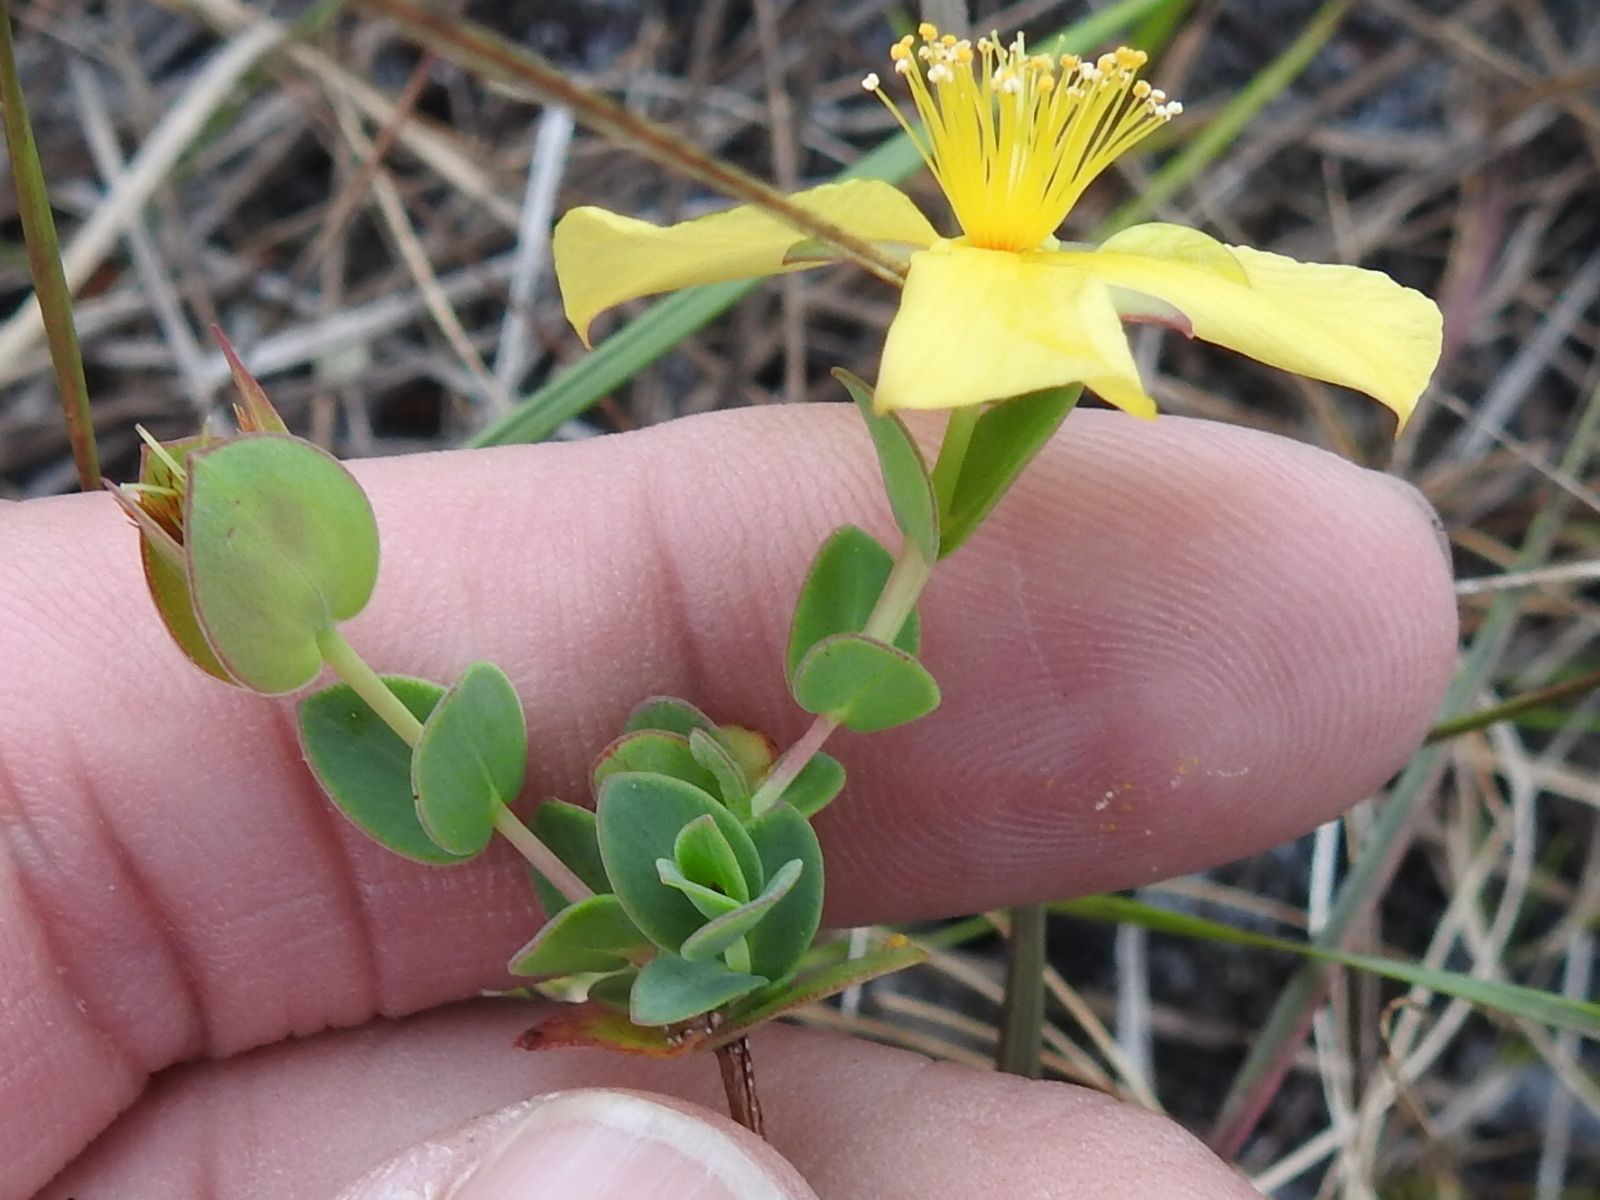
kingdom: Plantae
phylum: Tracheophyta
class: Magnoliopsida
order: Malpighiales
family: Hypericaceae
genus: Hypericum
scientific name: Hypericum tetrapetalum
